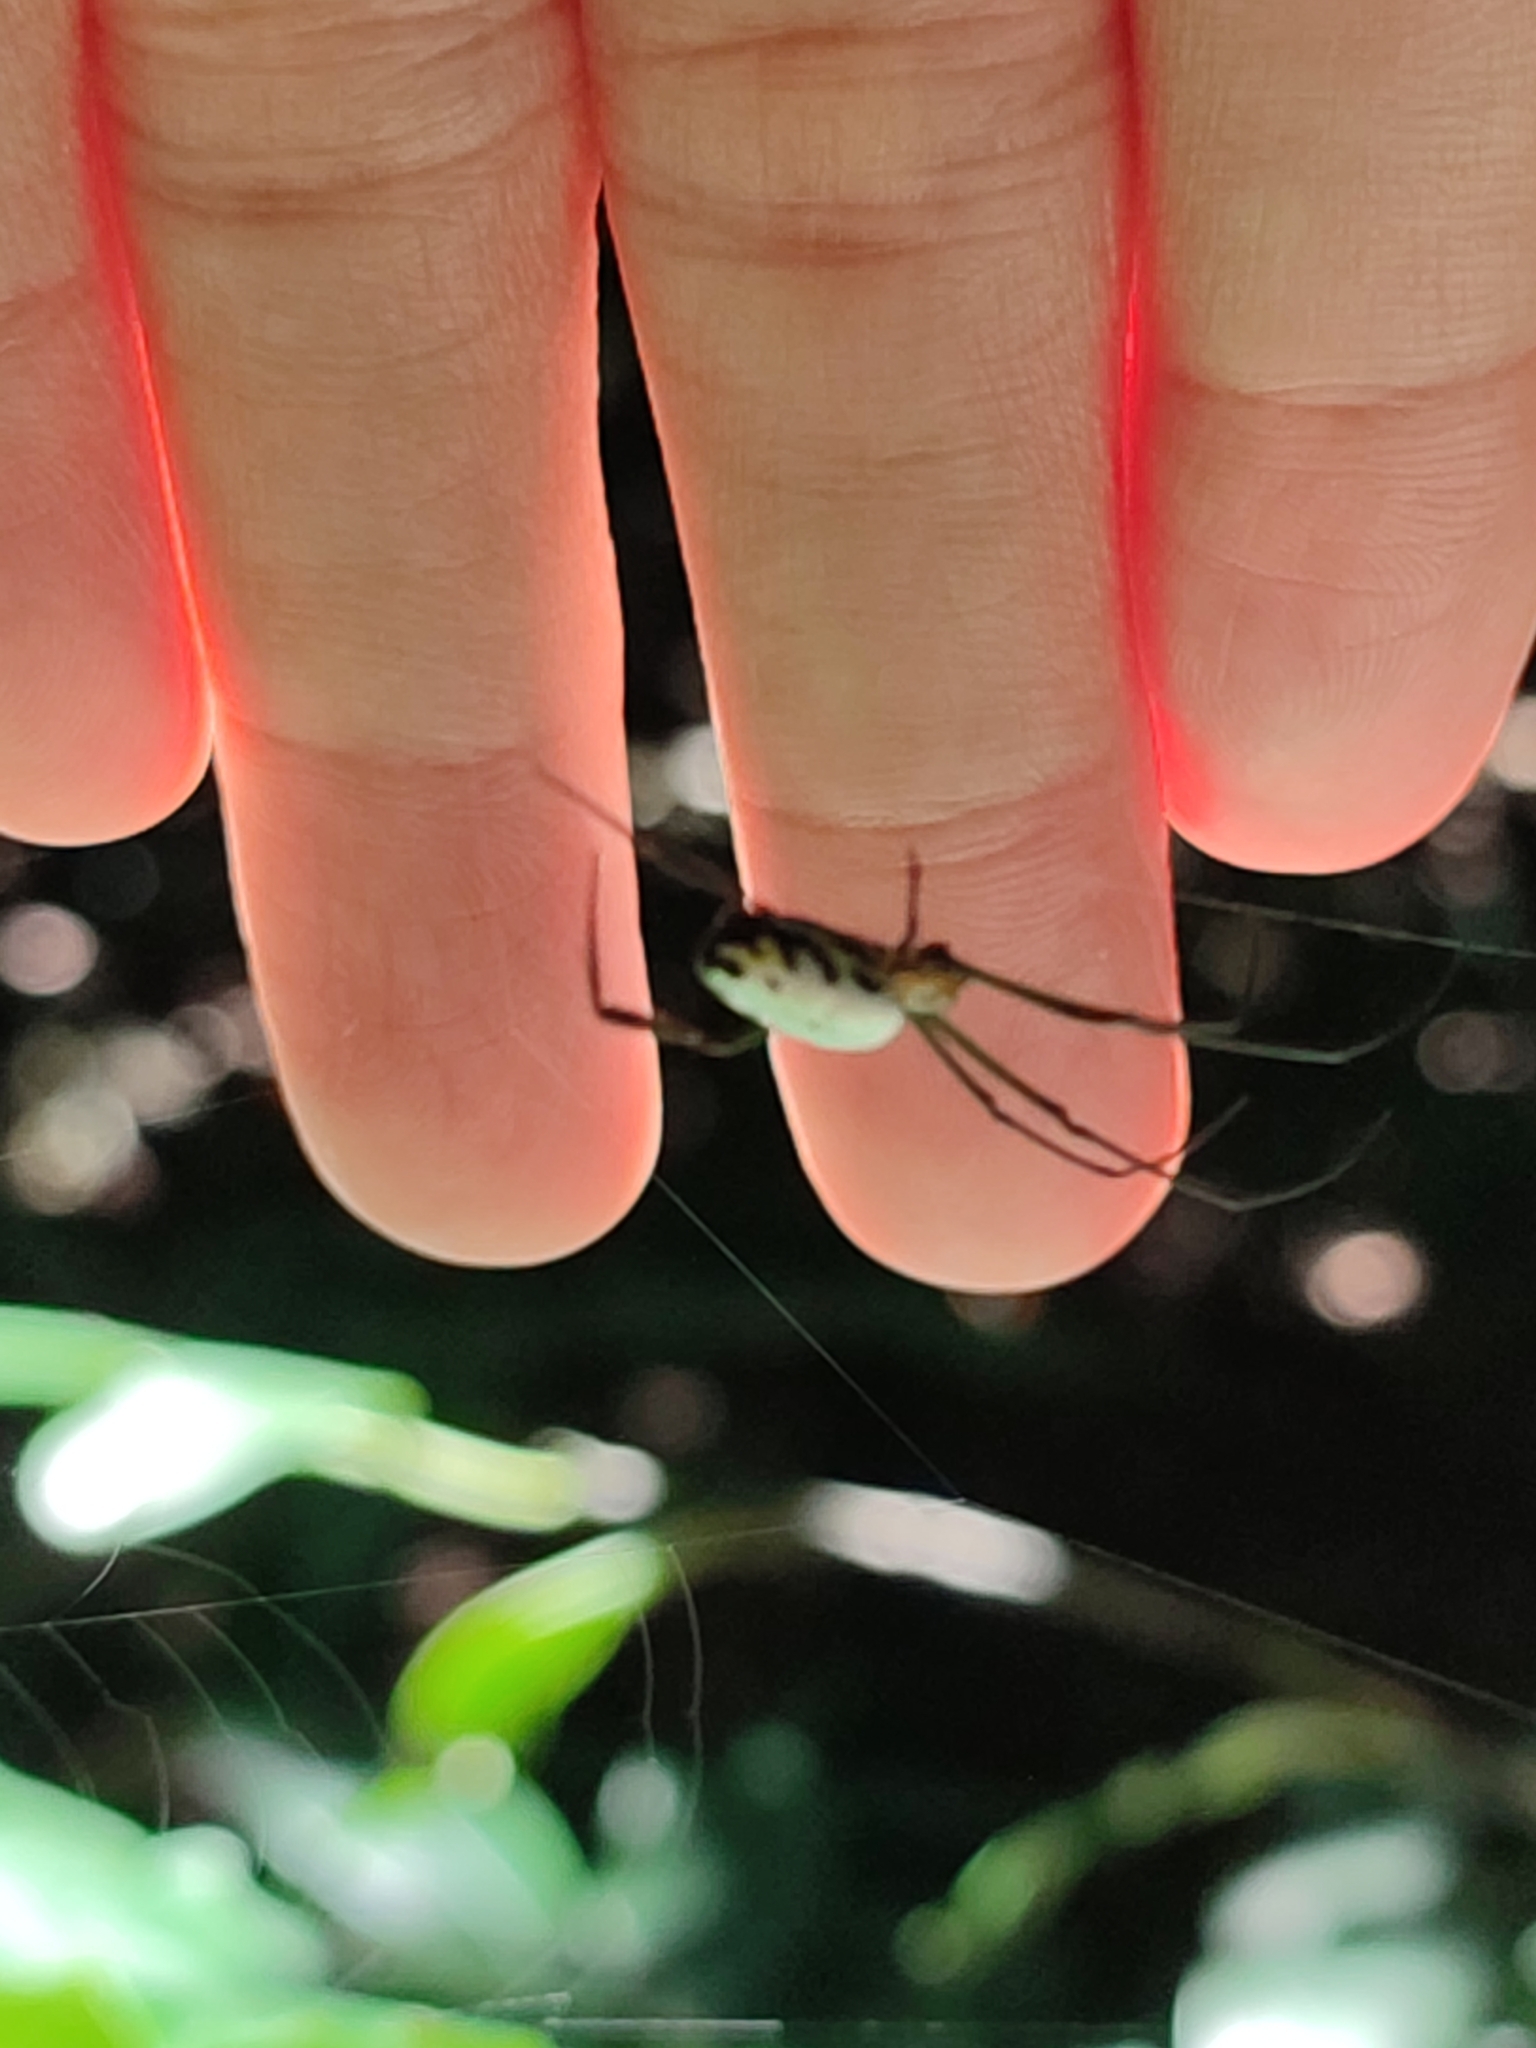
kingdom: Animalia
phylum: Arthropoda
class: Arachnida
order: Araneae
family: Tetragnathidae
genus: Leucauge
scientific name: Leucauge taiwanica
